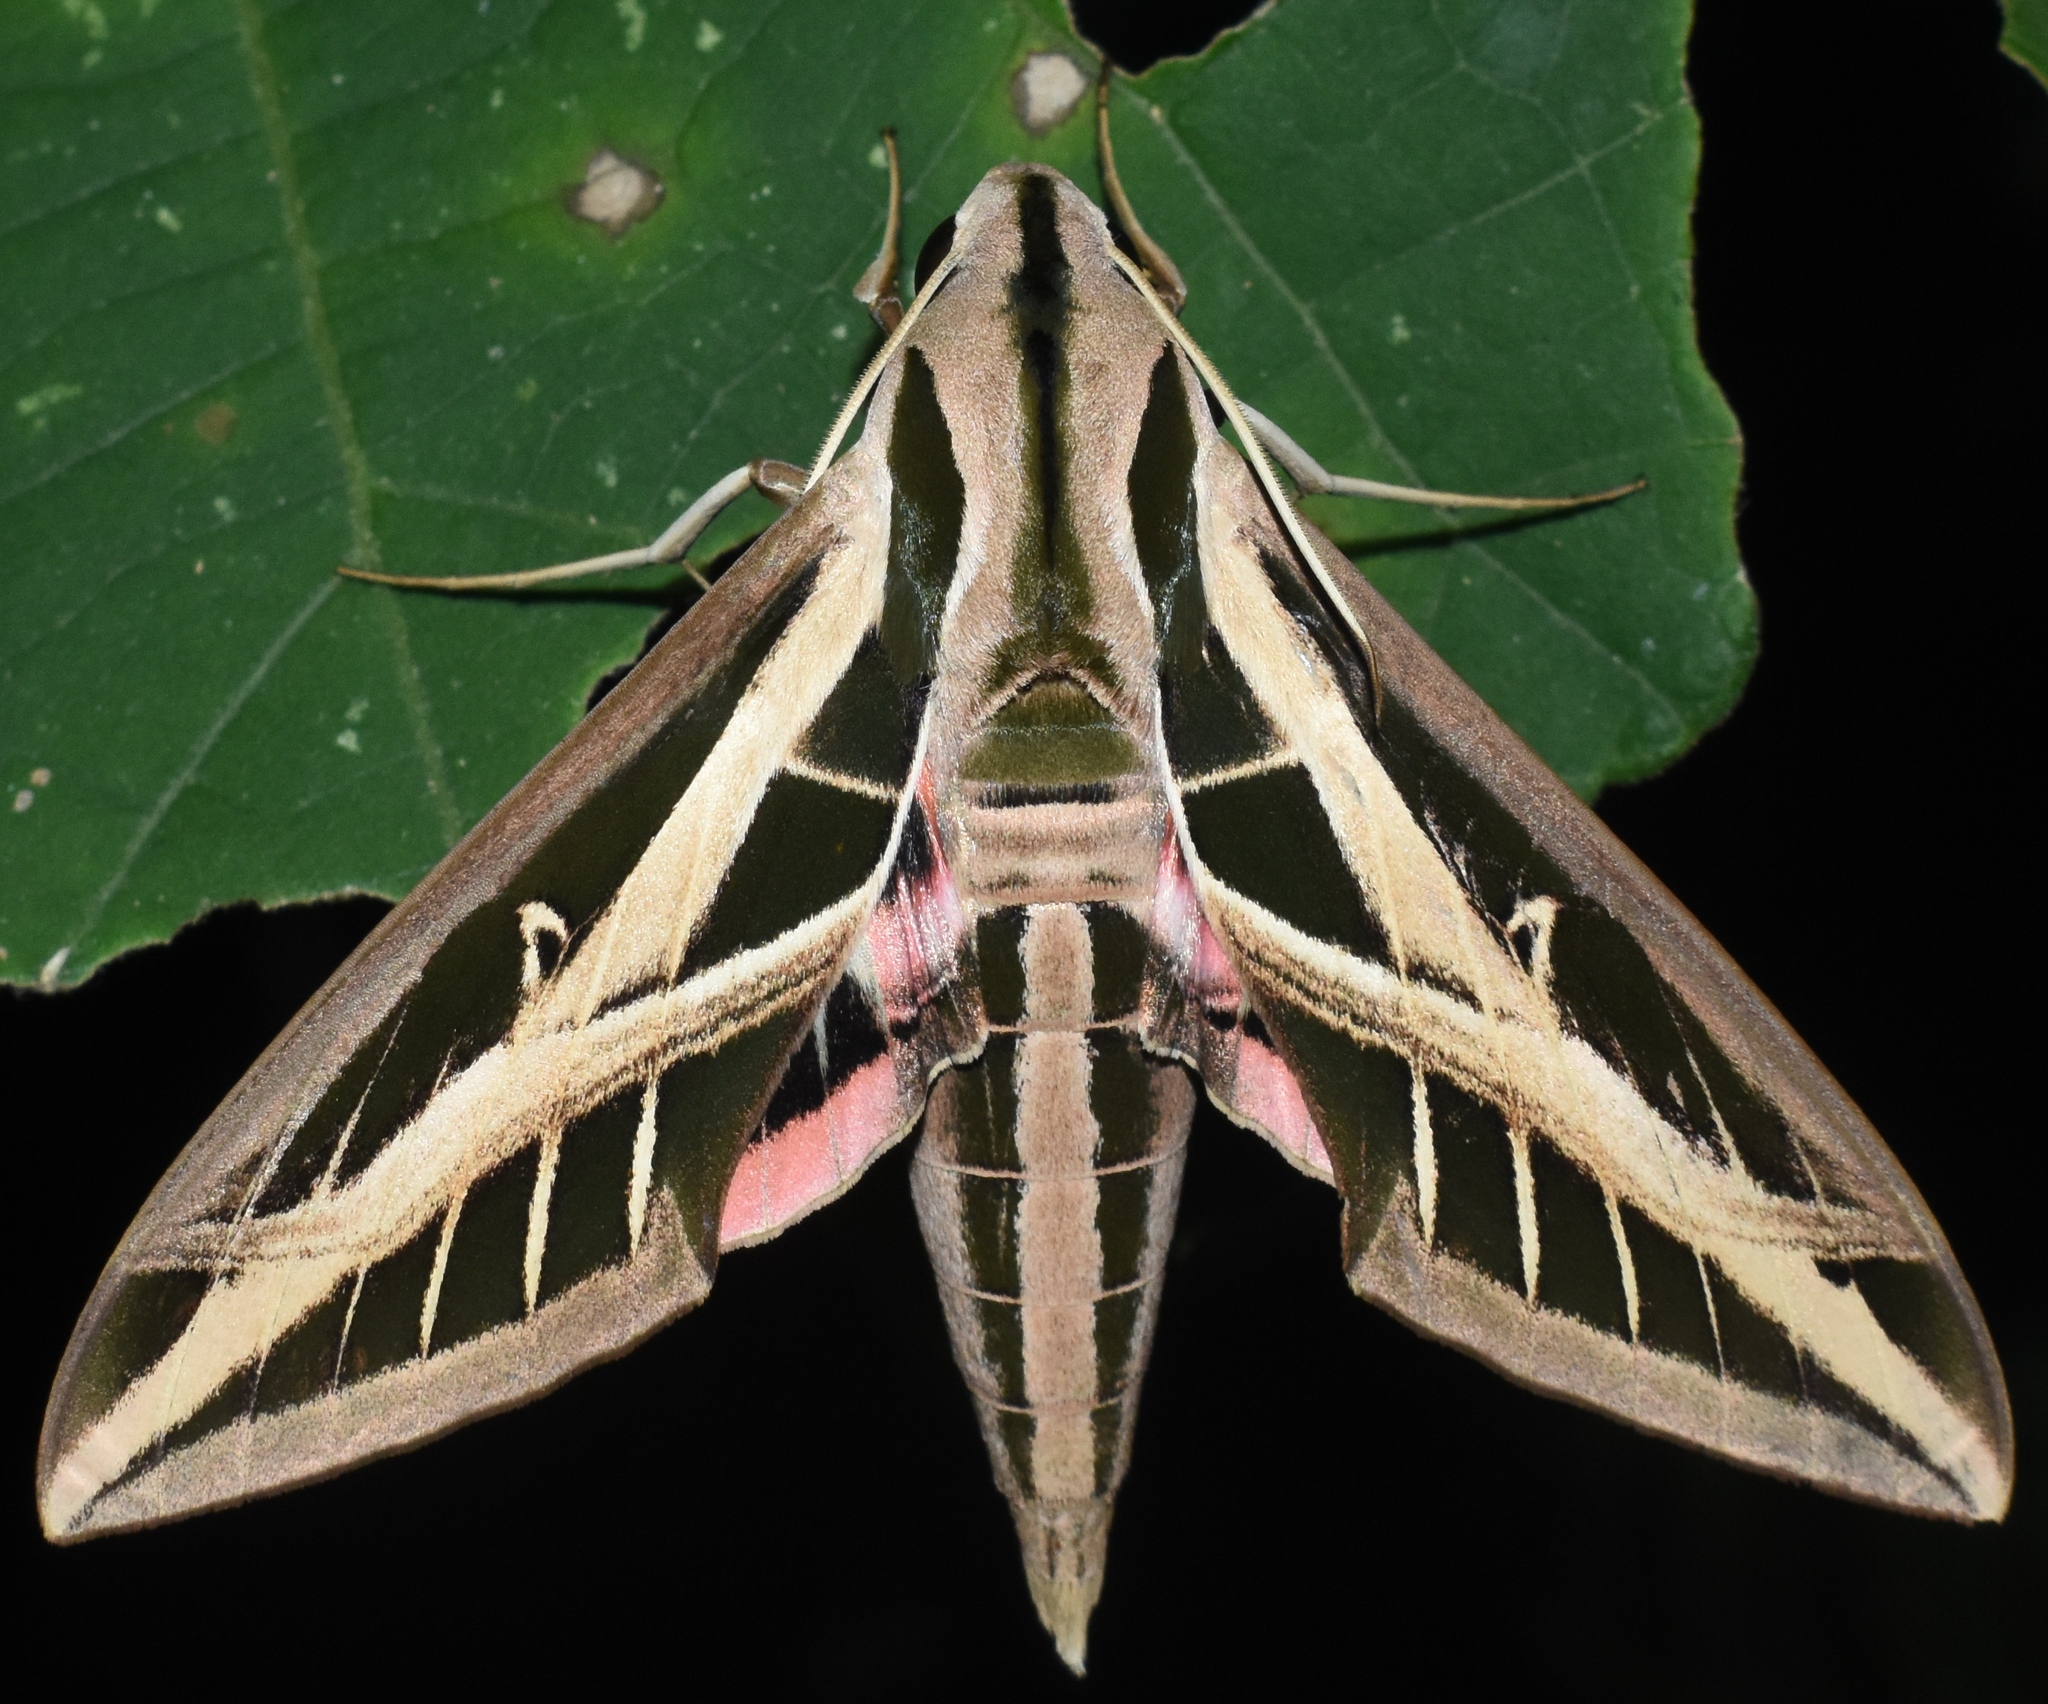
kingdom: Animalia
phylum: Arthropoda
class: Insecta
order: Lepidoptera
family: Sphingidae
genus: Eumorpha
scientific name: Eumorpha fasciatus
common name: Banded sphinx
